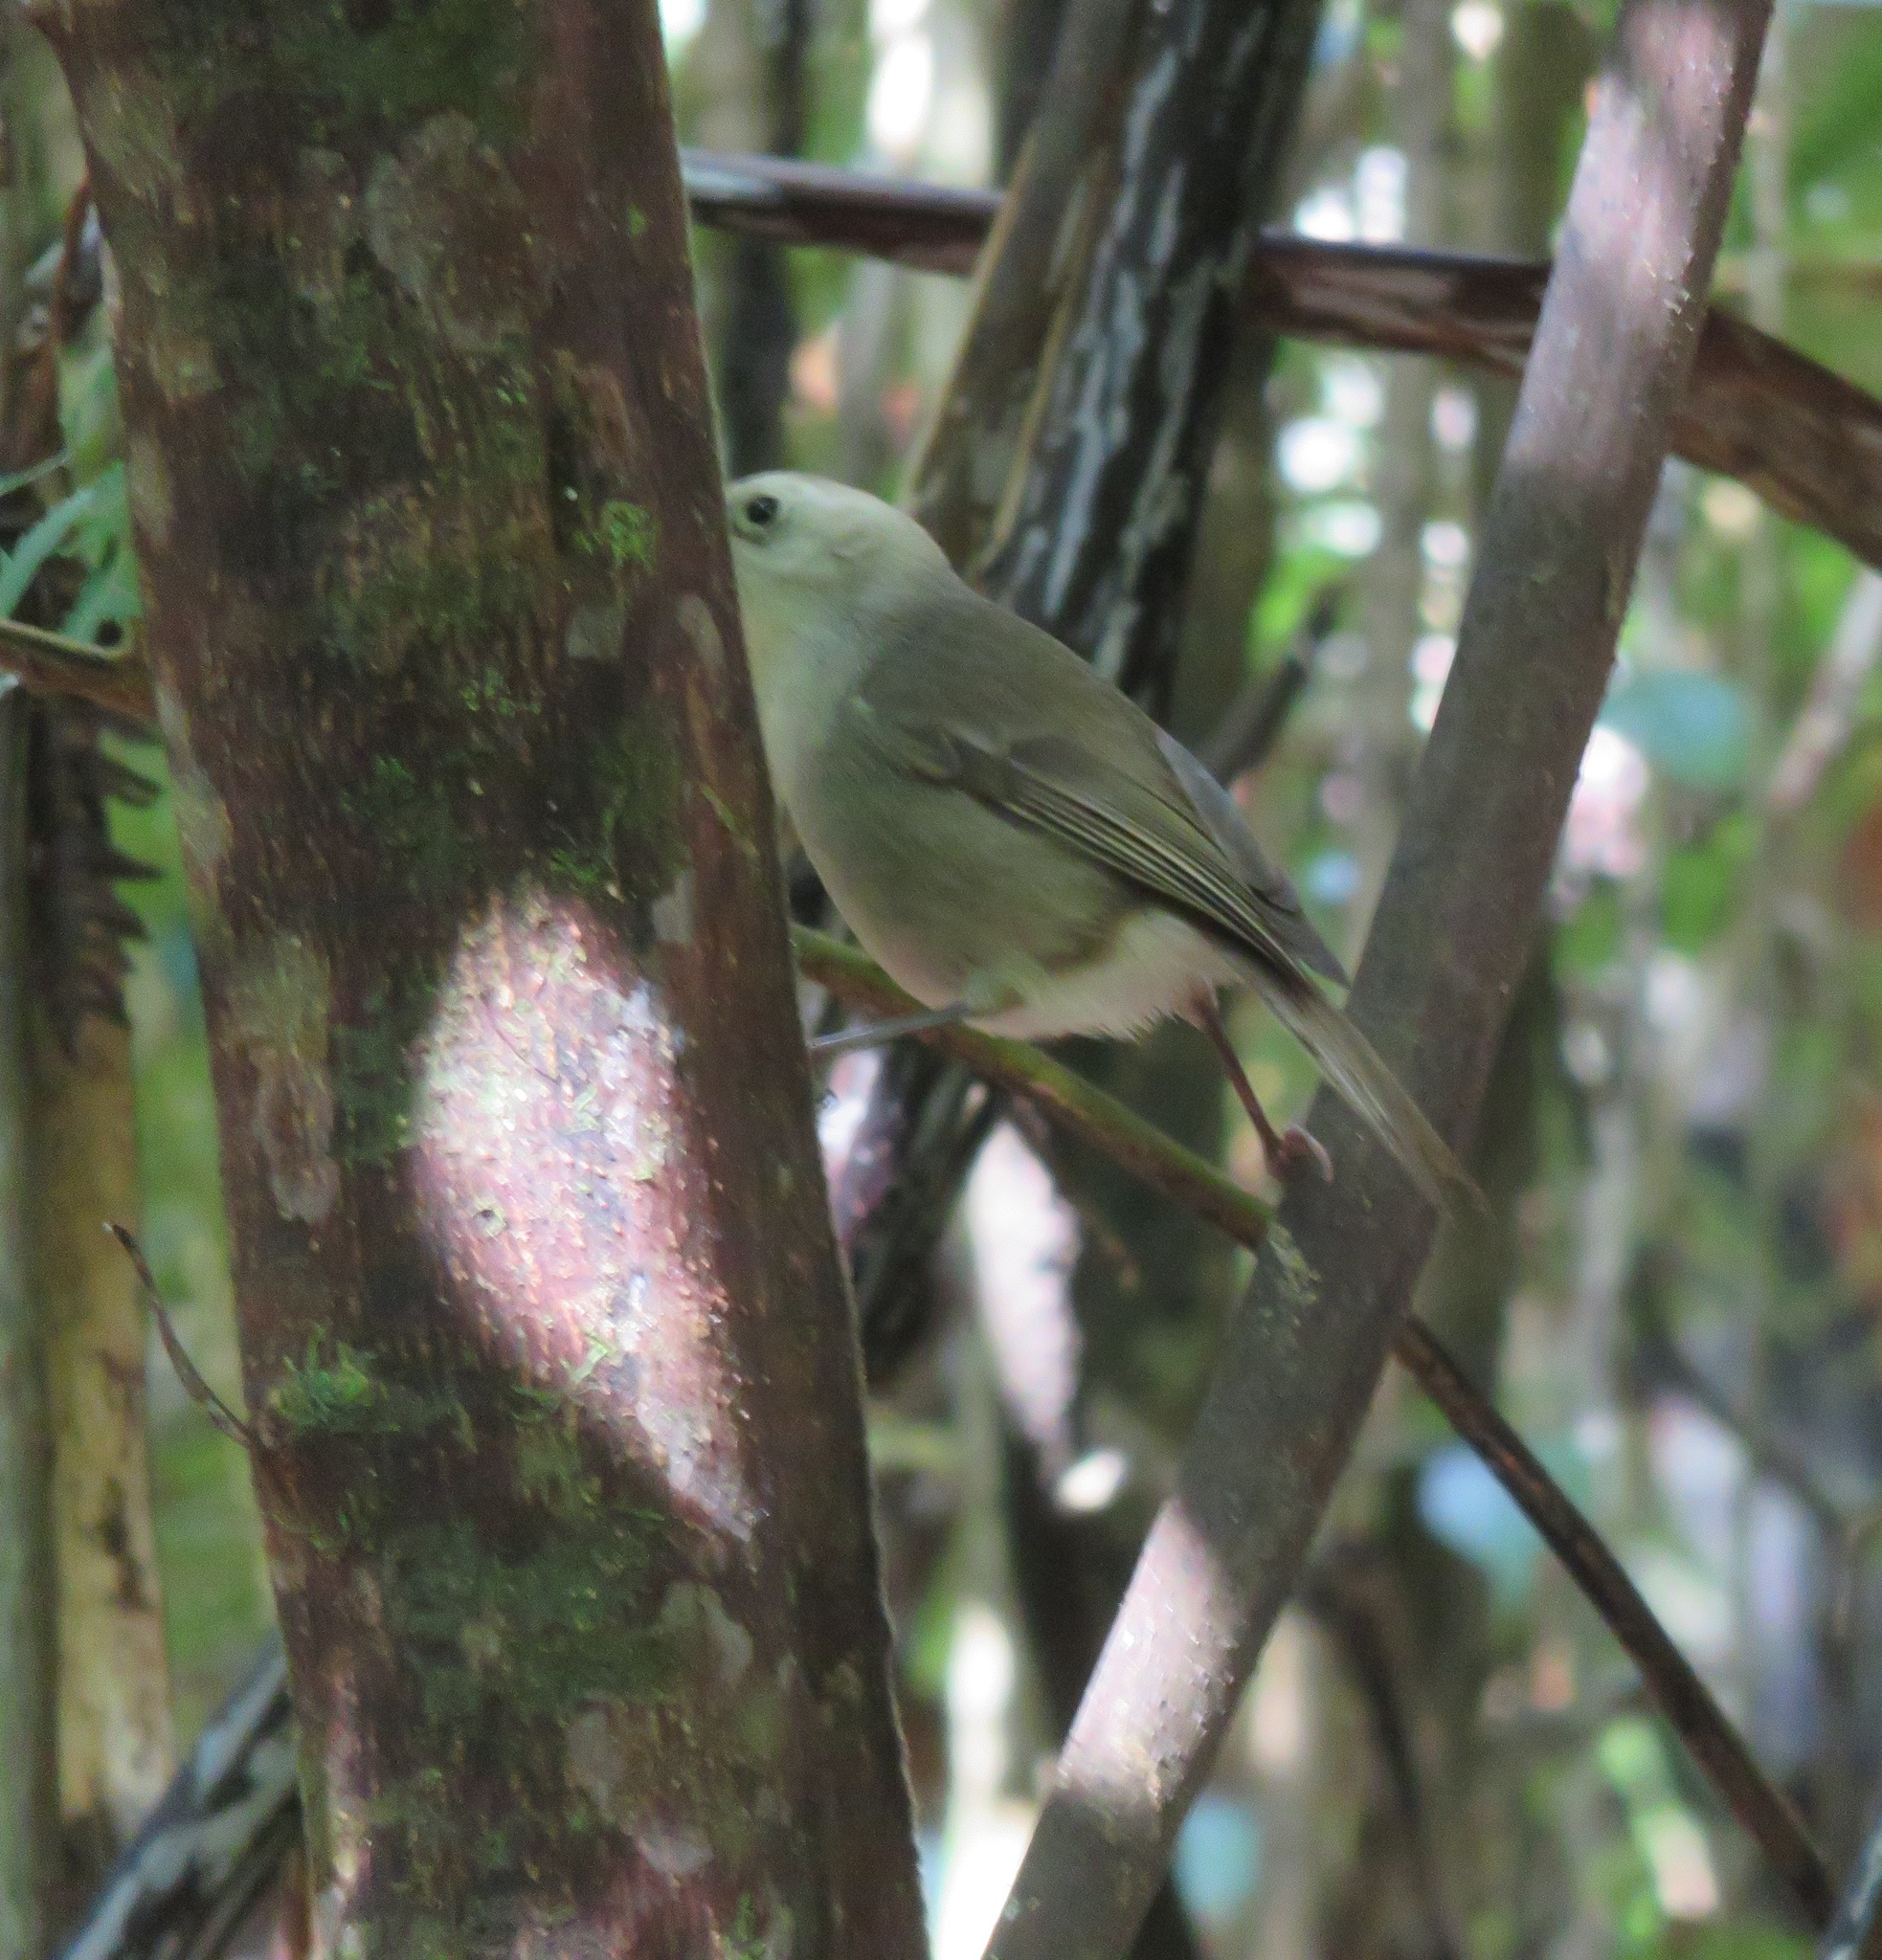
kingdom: Animalia
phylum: Chordata
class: Aves
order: Passeriformes
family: Acanthizidae
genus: Mohoua
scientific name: Mohoua albicilla
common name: Whitehead
